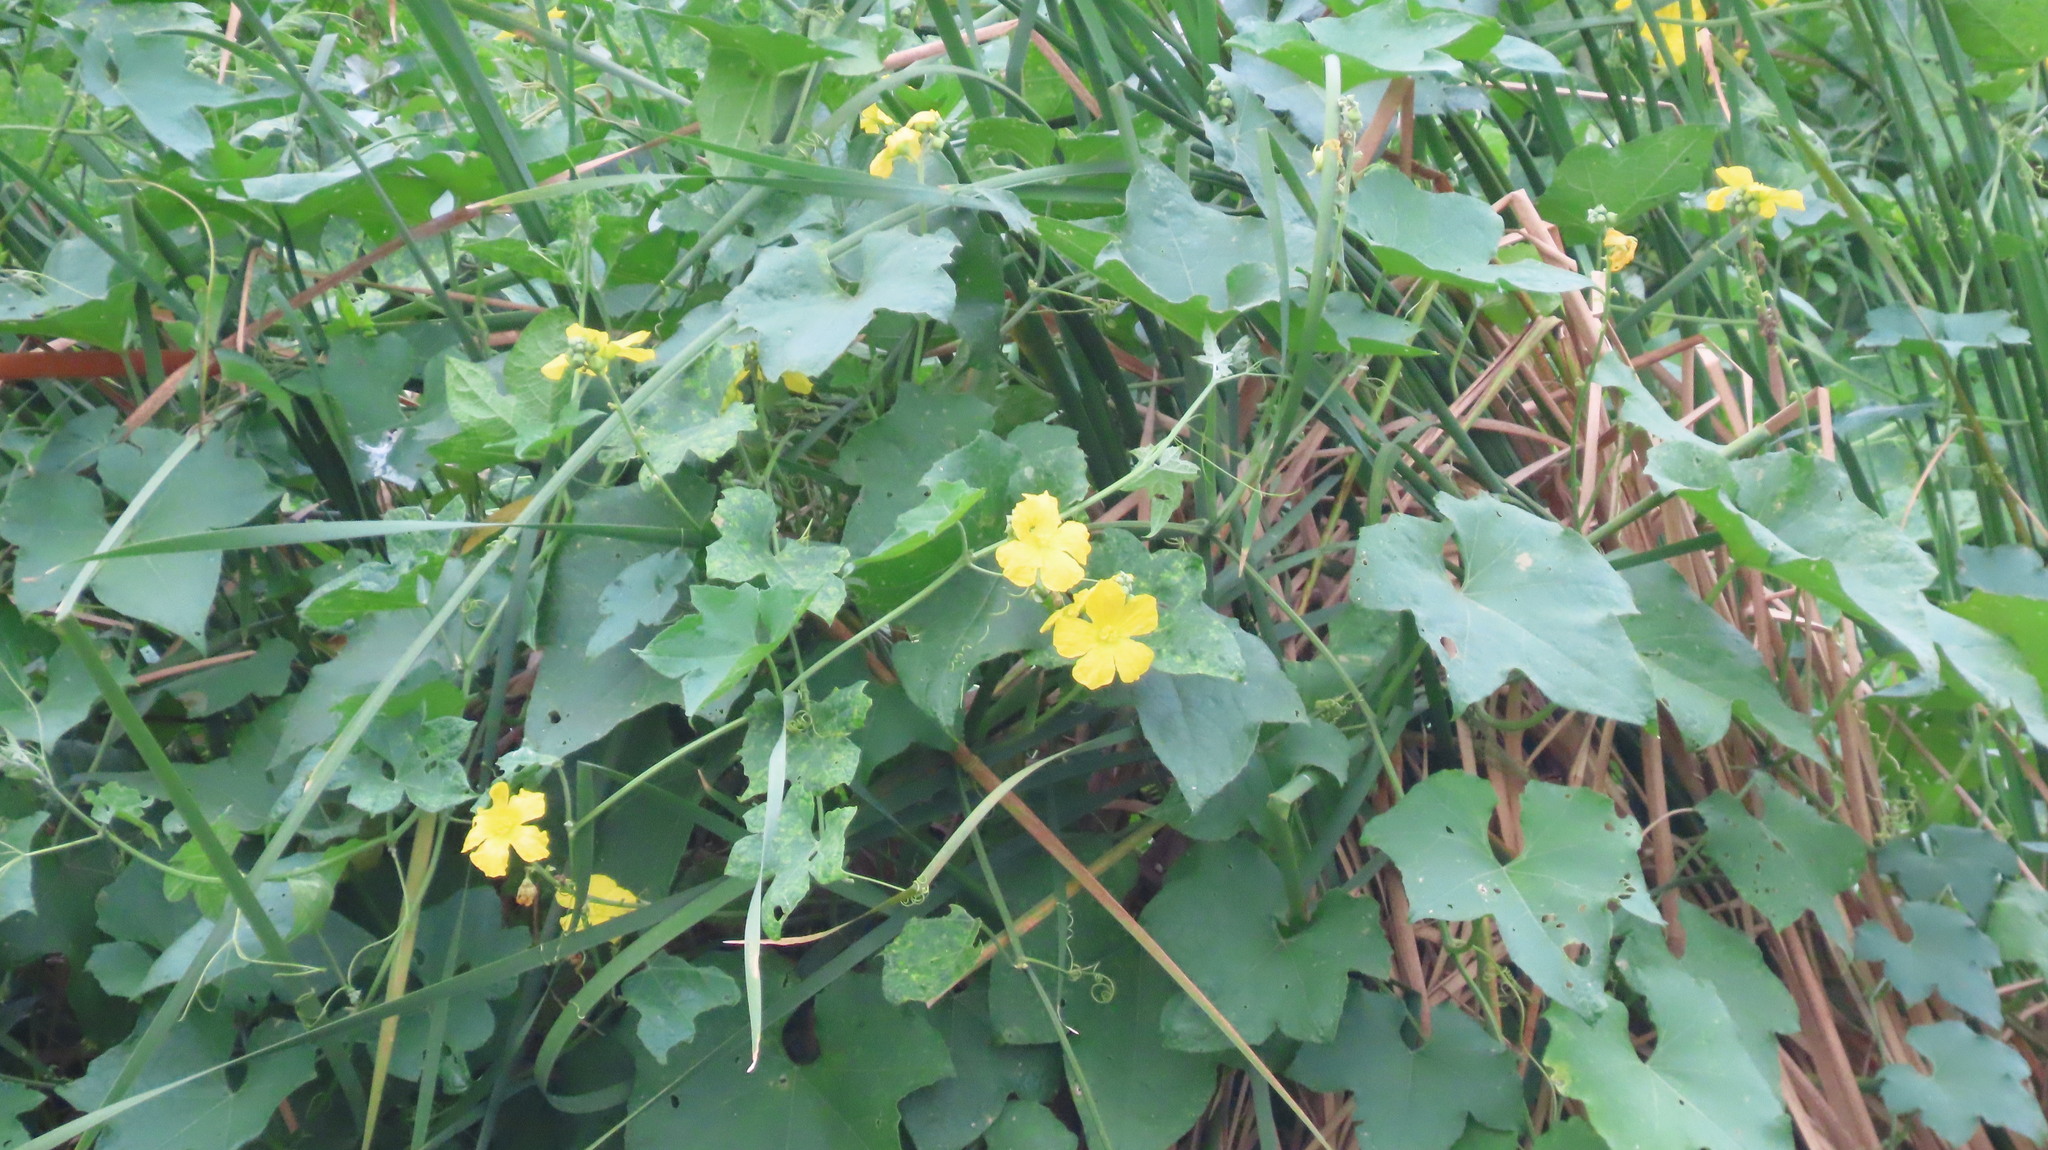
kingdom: Plantae
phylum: Tracheophyta
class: Magnoliopsida
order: Cucurbitales
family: Cucurbitaceae
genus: Luffa
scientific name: Luffa aegyptiaca
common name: Sponge gourd
